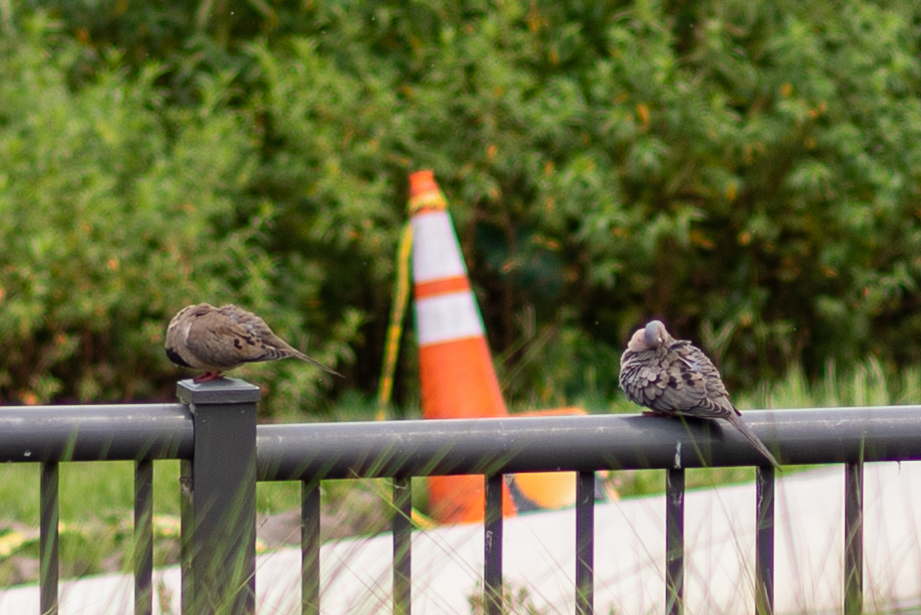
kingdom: Animalia
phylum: Chordata
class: Aves
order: Columbiformes
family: Columbidae
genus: Zenaida
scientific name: Zenaida macroura
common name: Mourning dove
